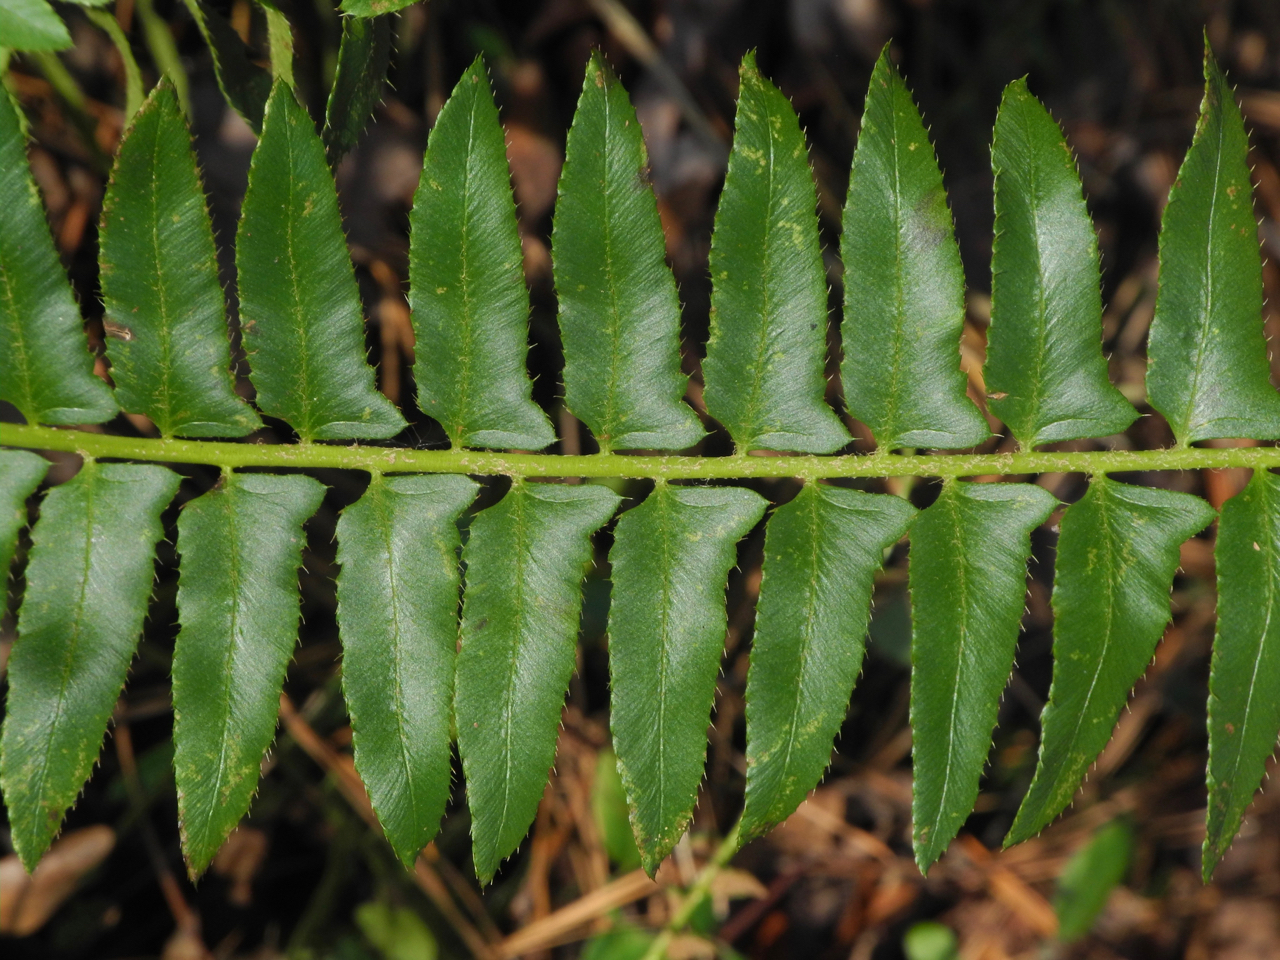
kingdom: Plantae
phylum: Tracheophyta
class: Polypodiopsida
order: Polypodiales
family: Dryopteridaceae
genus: Polystichum
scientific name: Polystichum acrostichoides
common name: Christmas fern
